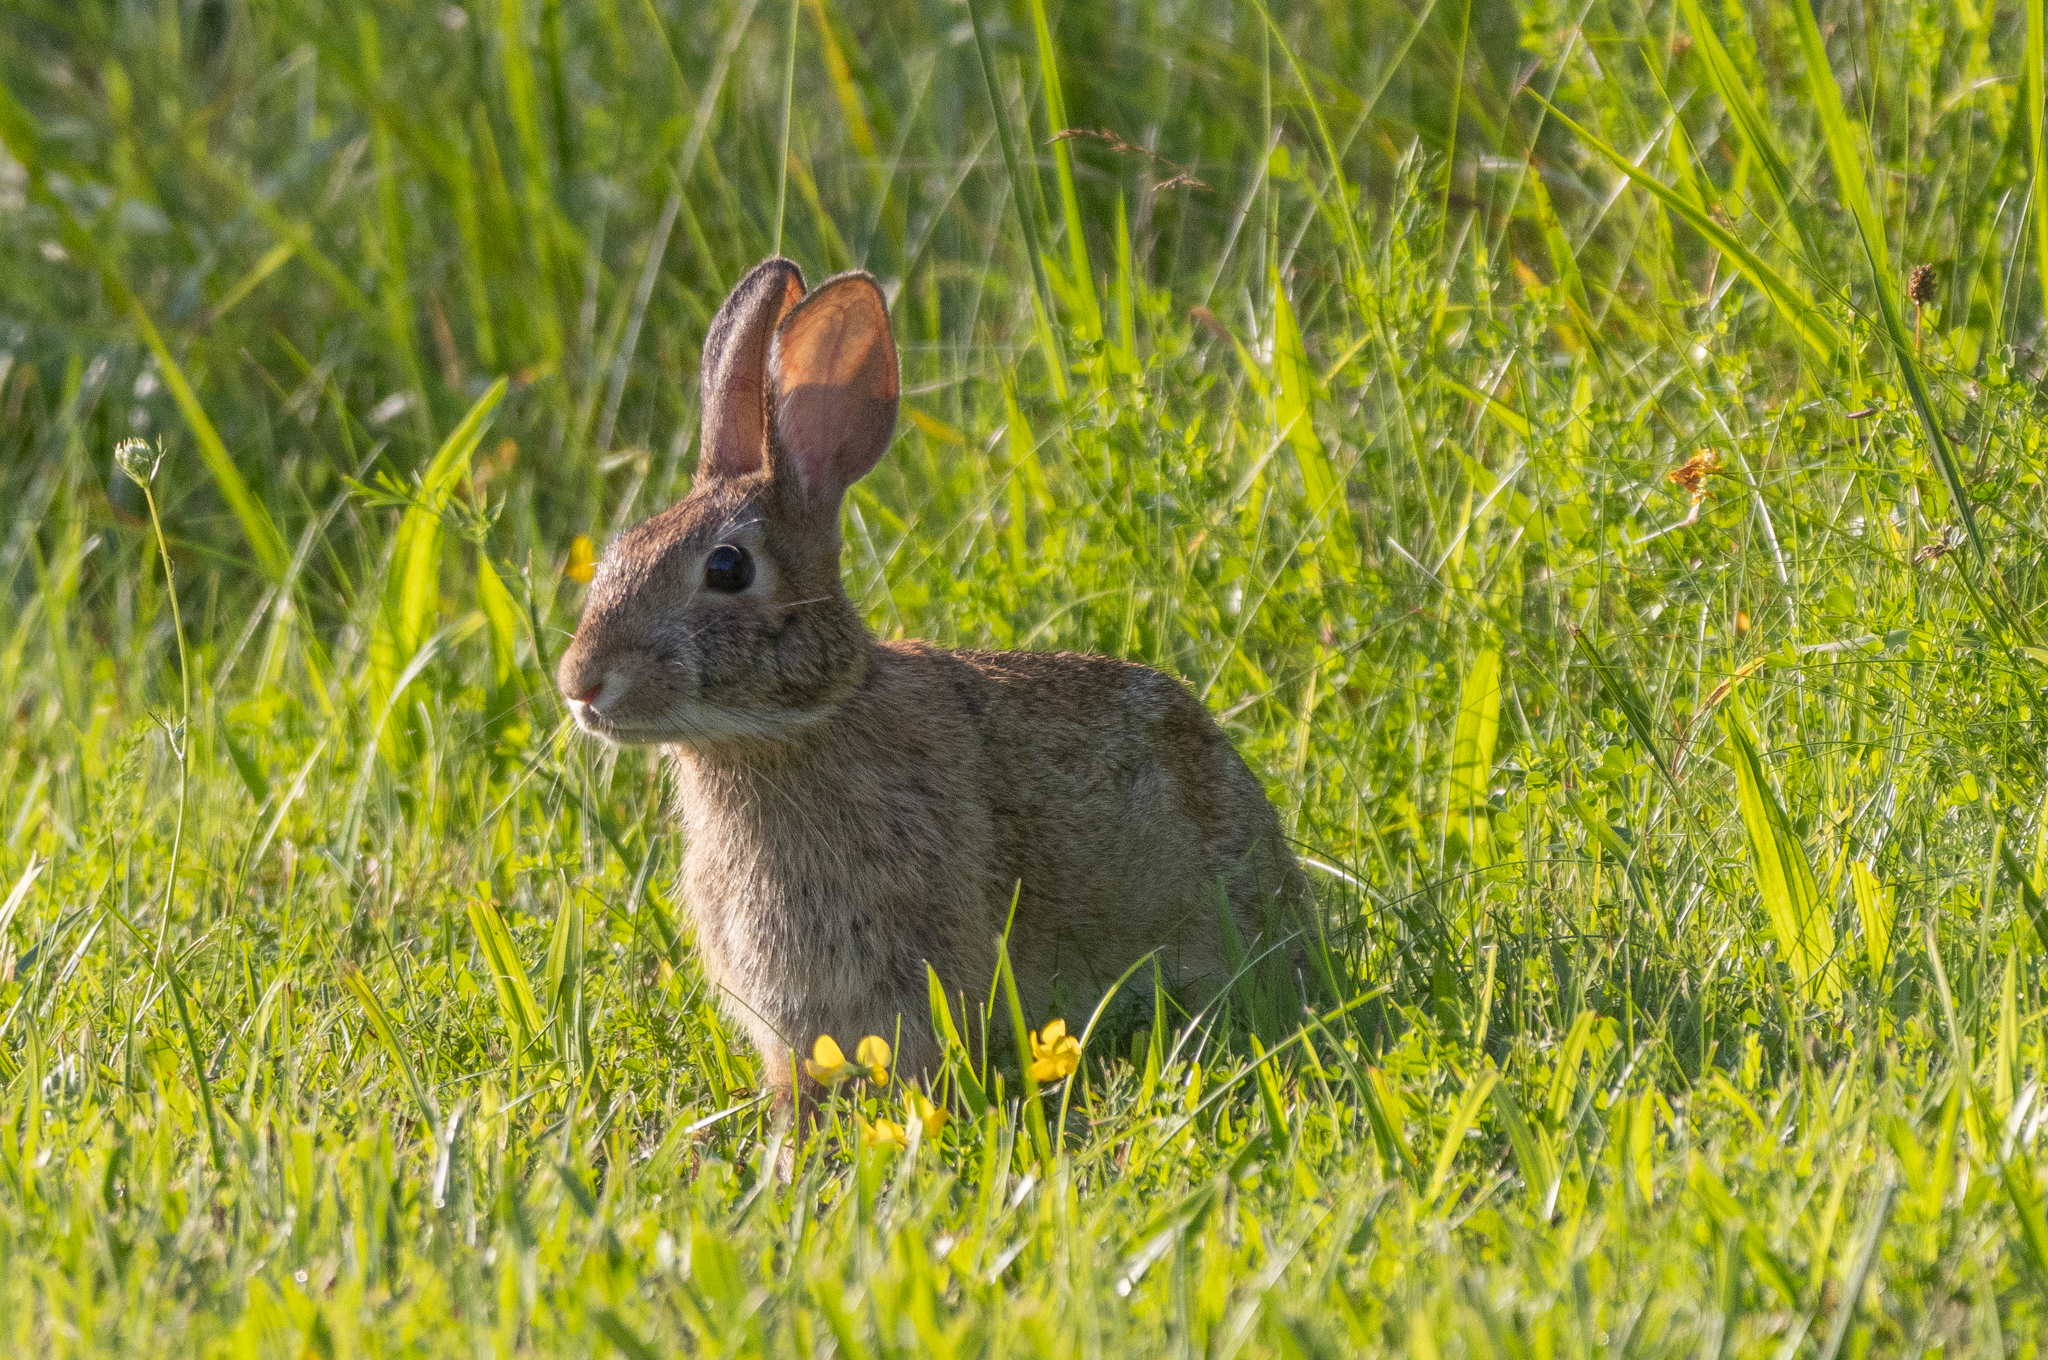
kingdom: Animalia
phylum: Chordata
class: Mammalia
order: Lagomorpha
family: Leporidae
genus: Sylvilagus
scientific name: Sylvilagus floridanus
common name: Eastern cottontail
